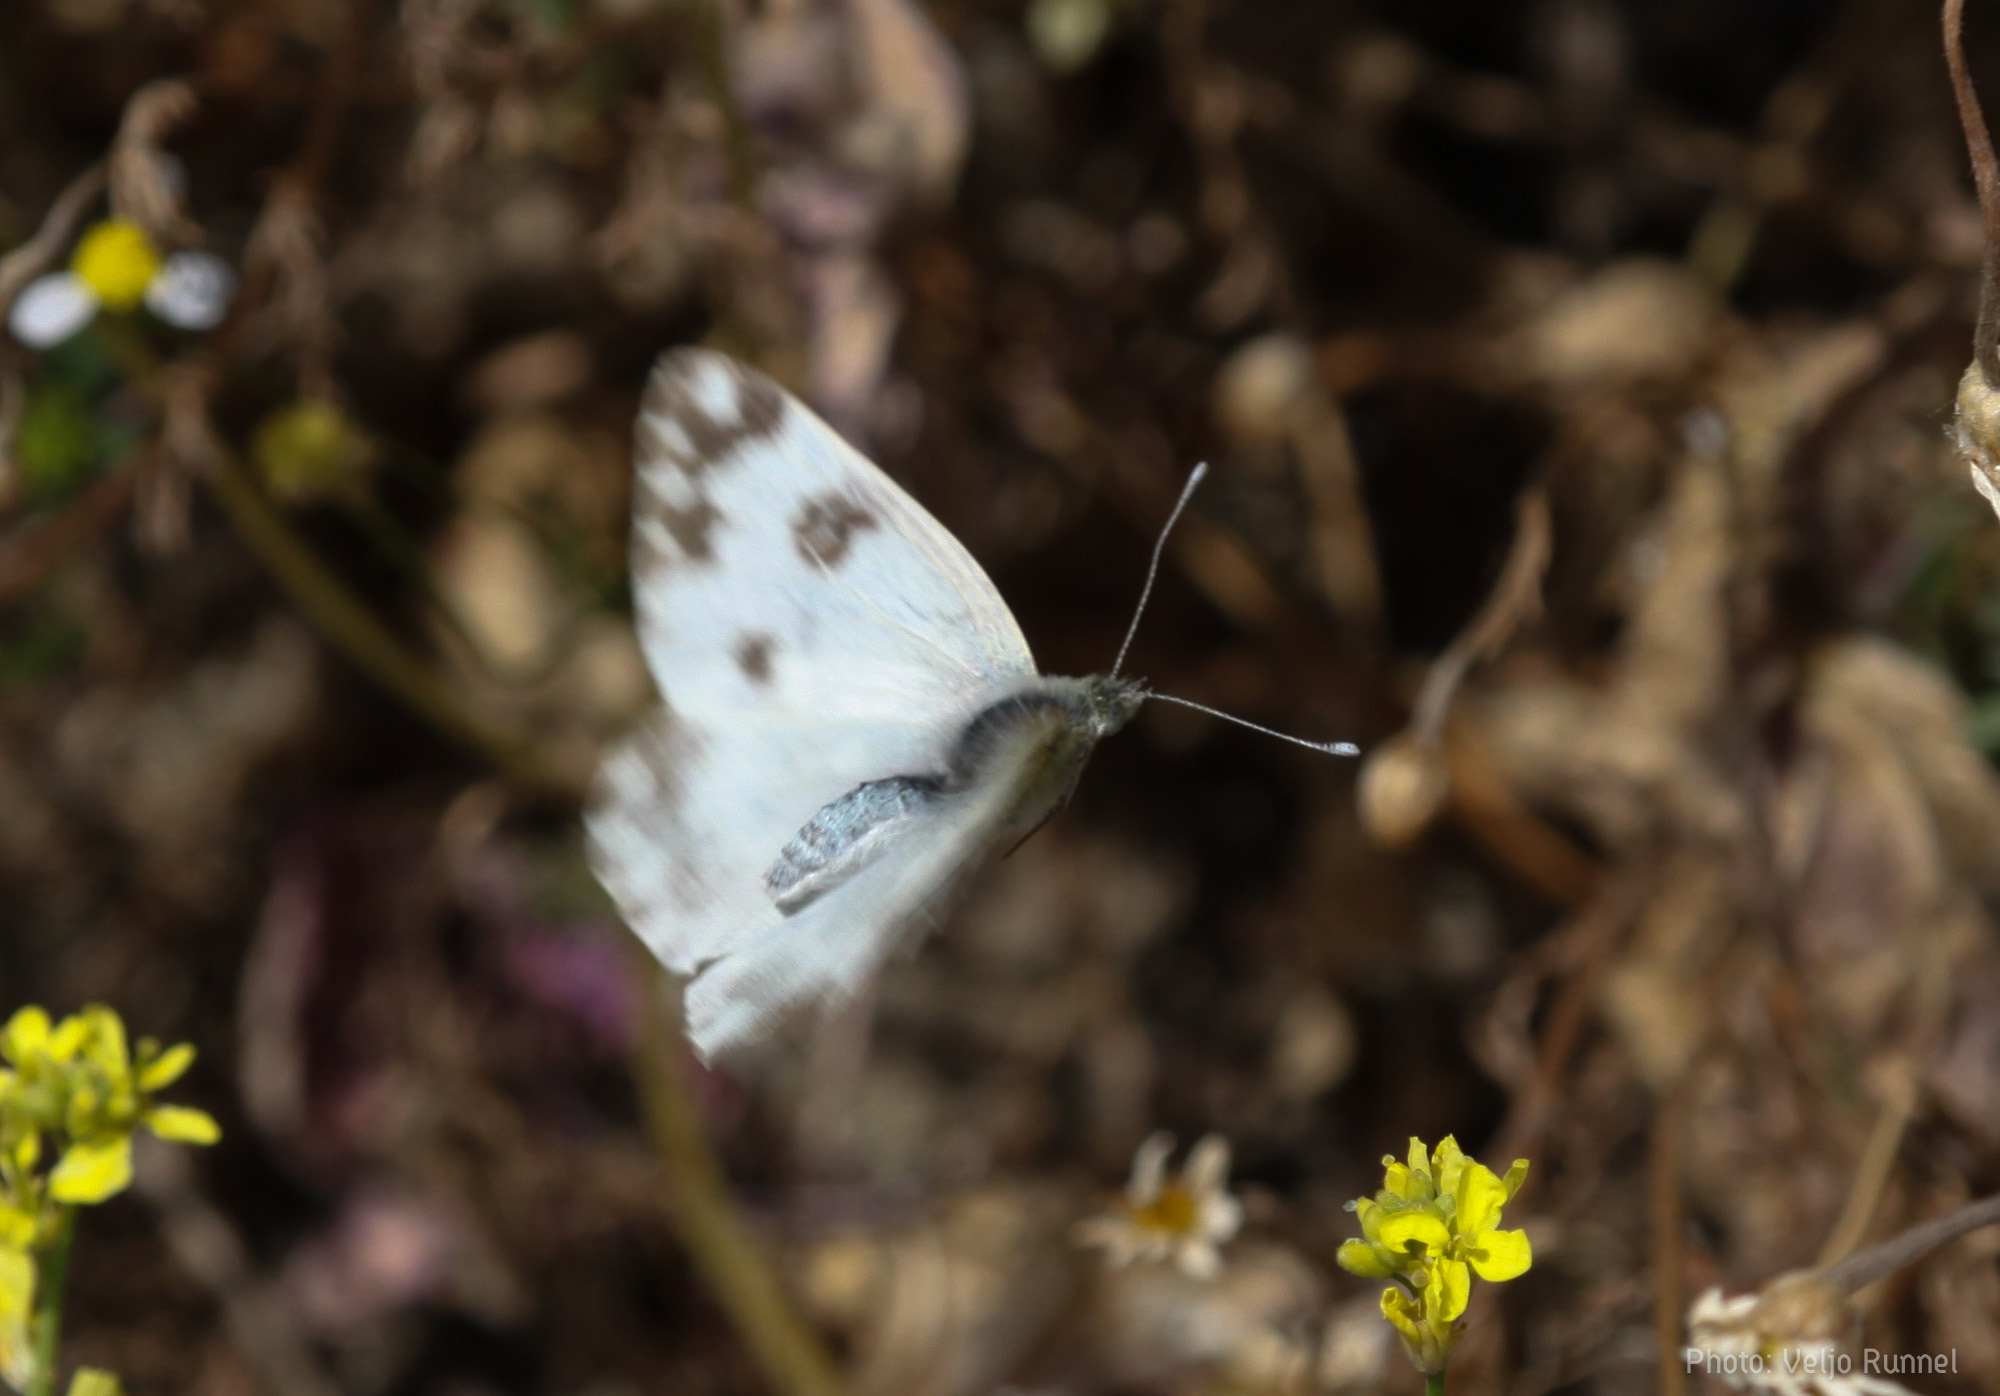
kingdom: Animalia
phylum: Arthropoda
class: Insecta
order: Lepidoptera
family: Pieridae
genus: Pontia
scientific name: Pontia edusa
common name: Eastern bath white
